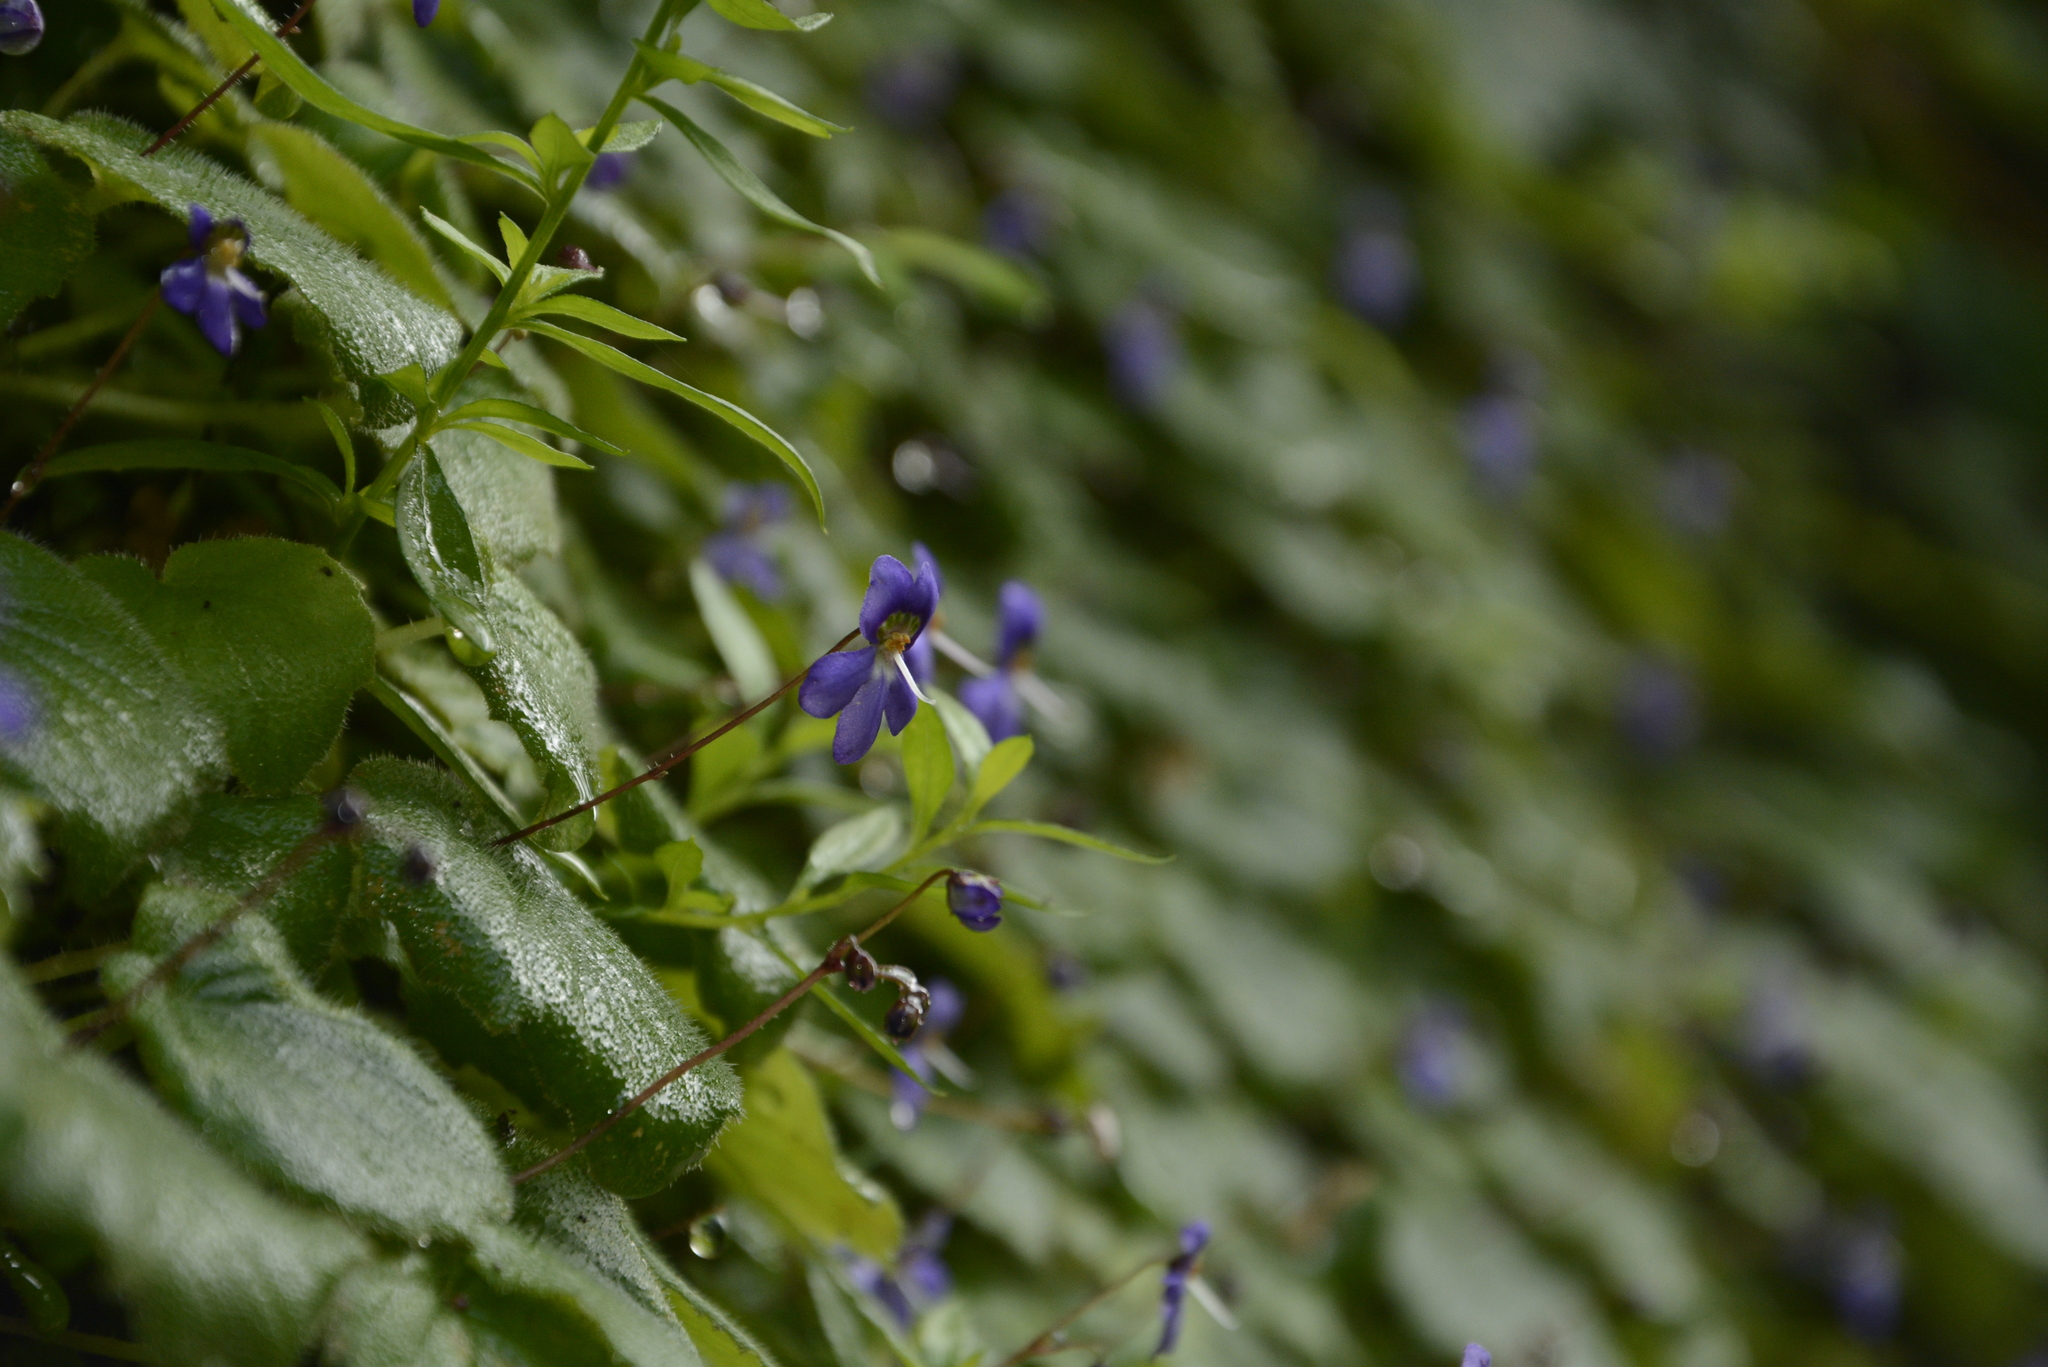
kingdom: Plantae
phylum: Tracheophyta
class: Magnoliopsida
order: Lamiales
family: Gesneriaceae
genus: Platystemma
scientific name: Platystemma violoides
